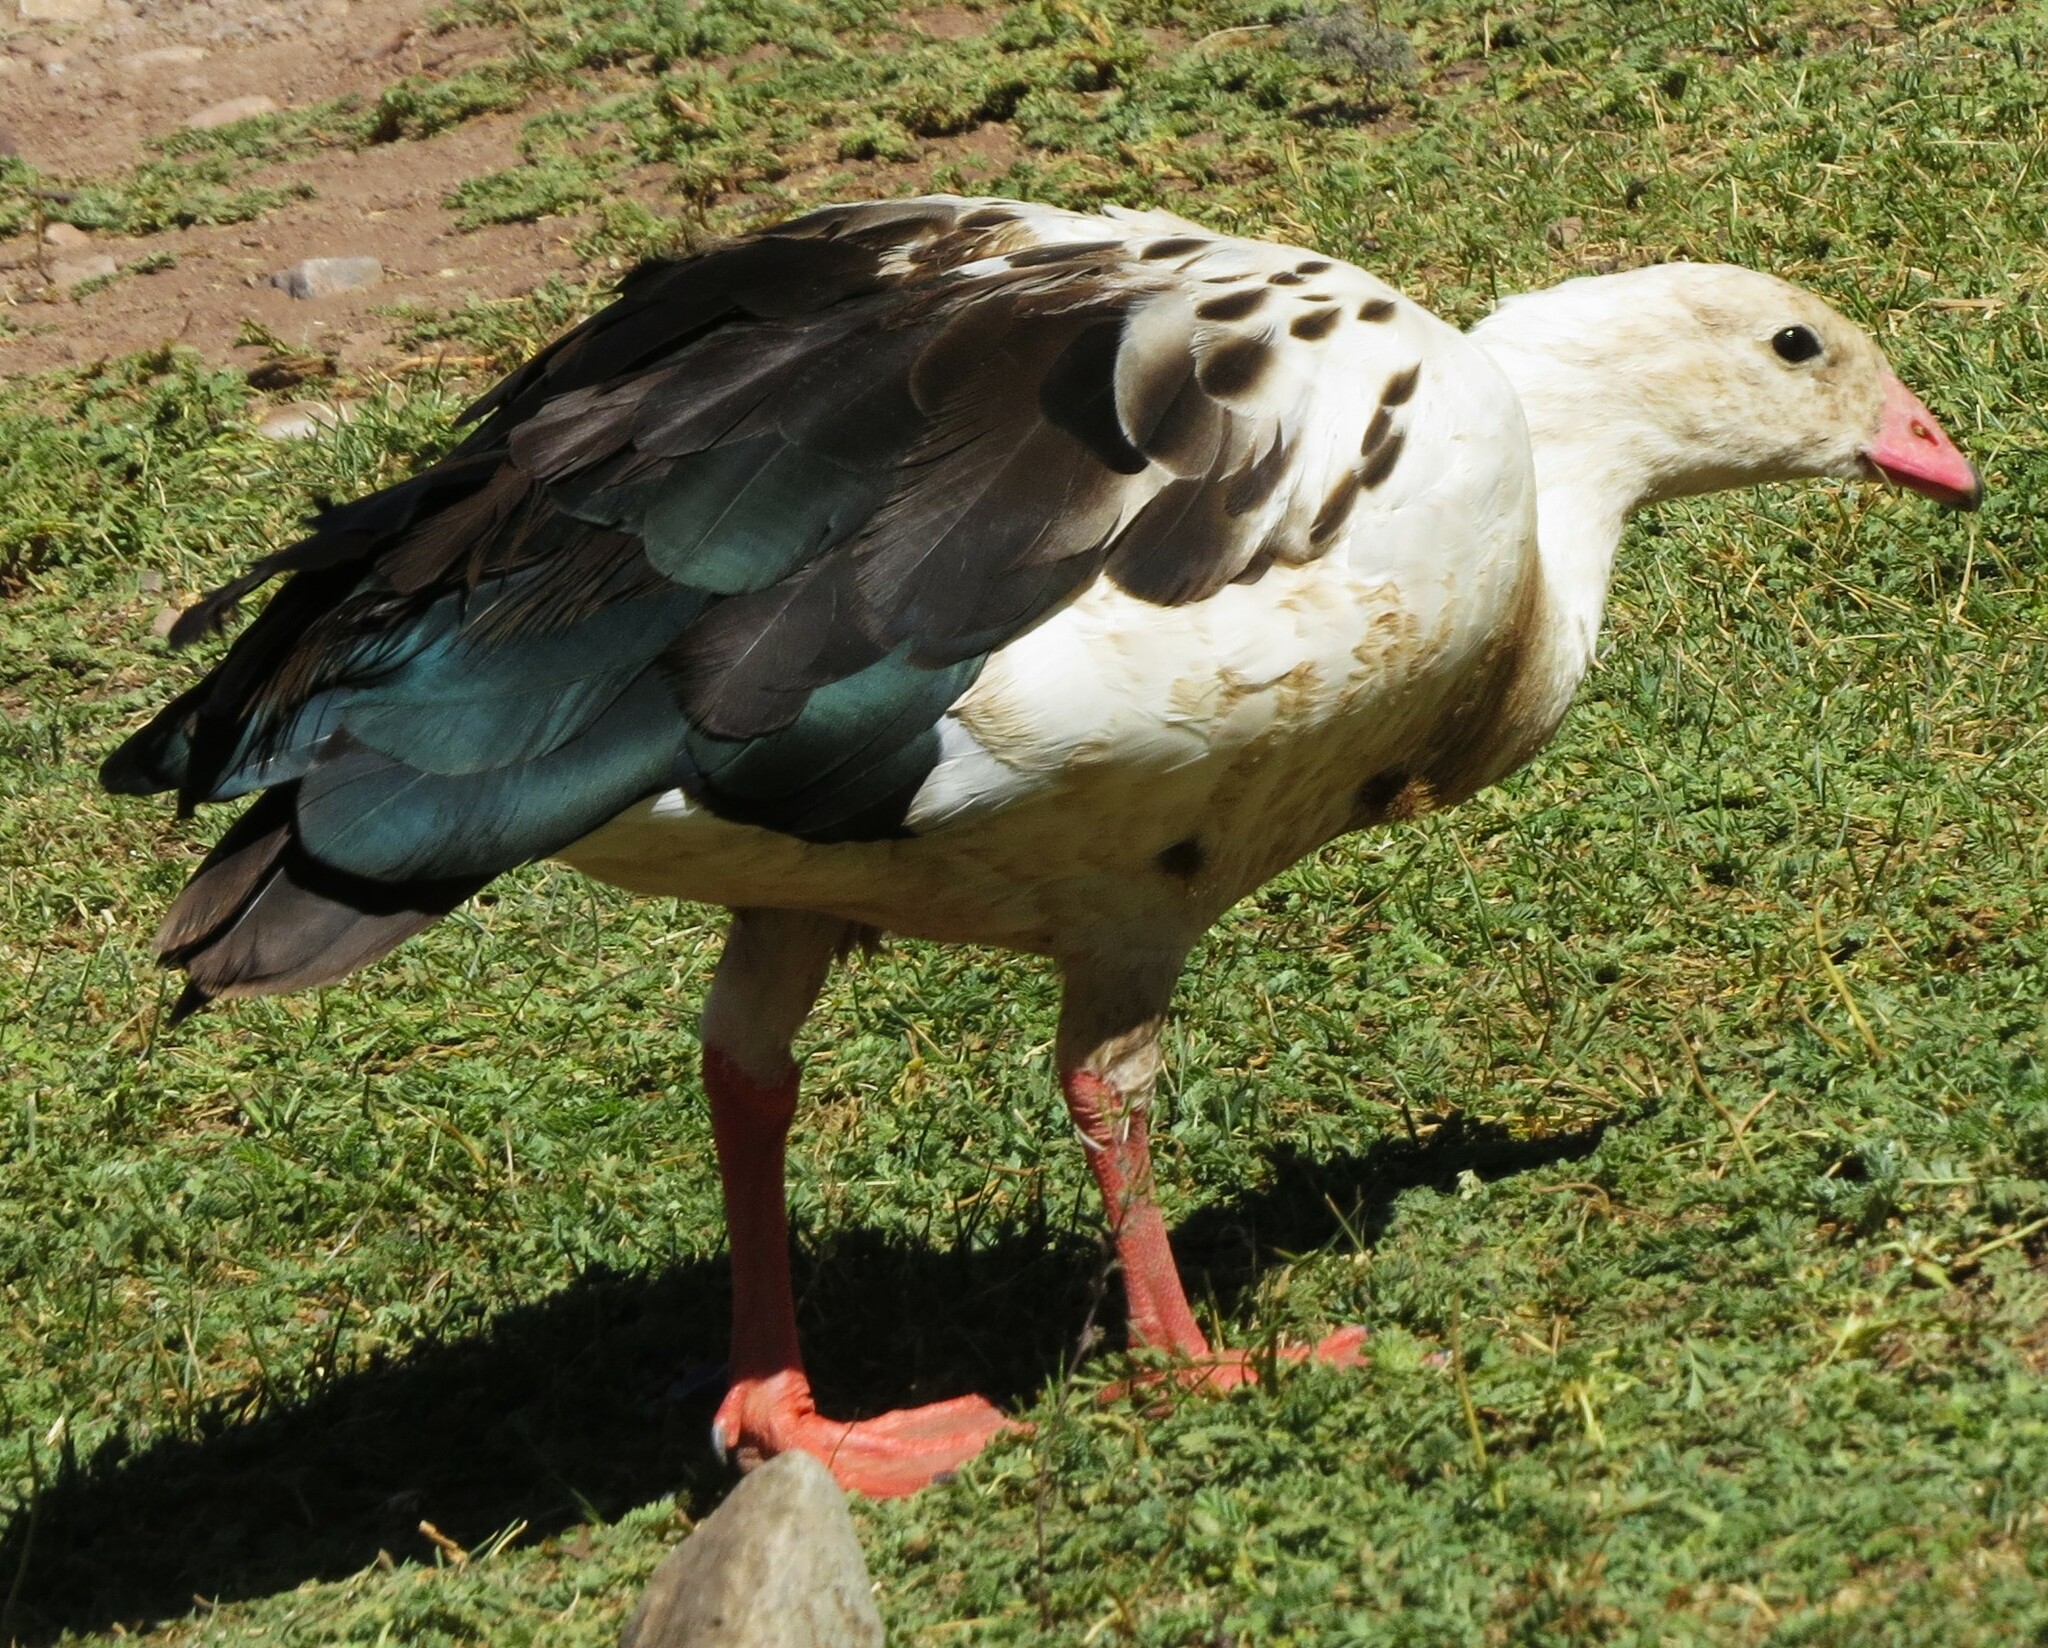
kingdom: Animalia
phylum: Chordata
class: Aves
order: Anseriformes
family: Anatidae
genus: Chloephaga
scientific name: Chloephaga melanoptera
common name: Andean goose
